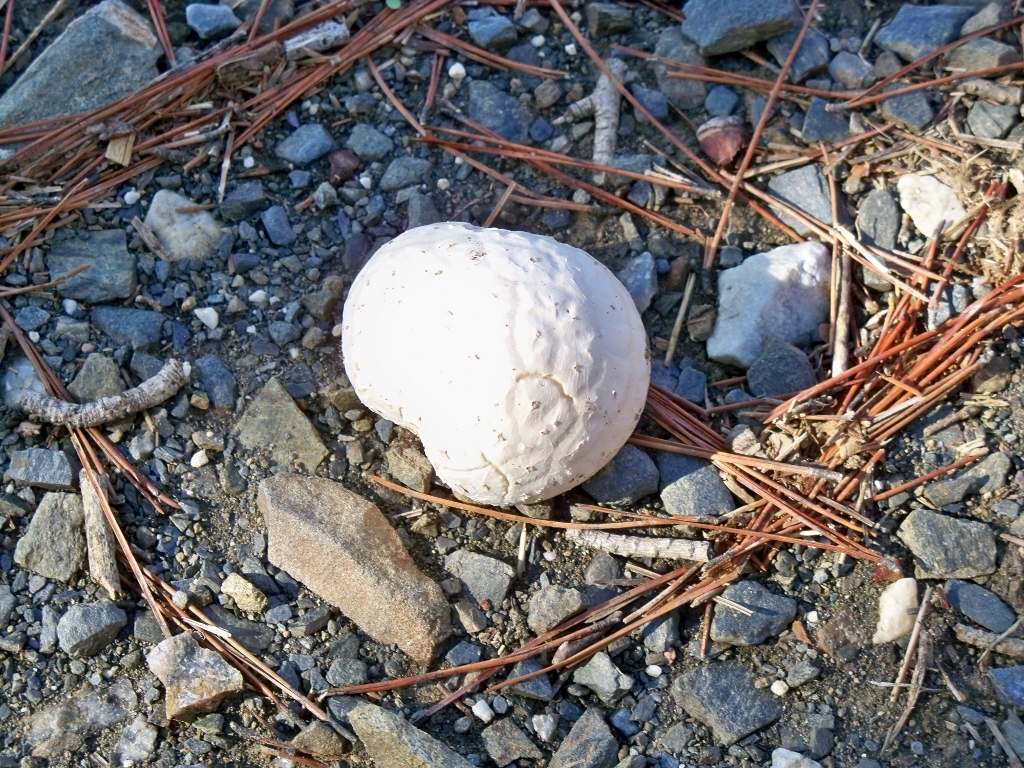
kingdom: Fungi
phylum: Basidiomycota
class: Agaricomycetes
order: Agaricales
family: Lycoperdaceae
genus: Lycoperdon
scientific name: Lycoperdon dermoxanthum
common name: Dwarf puffball
